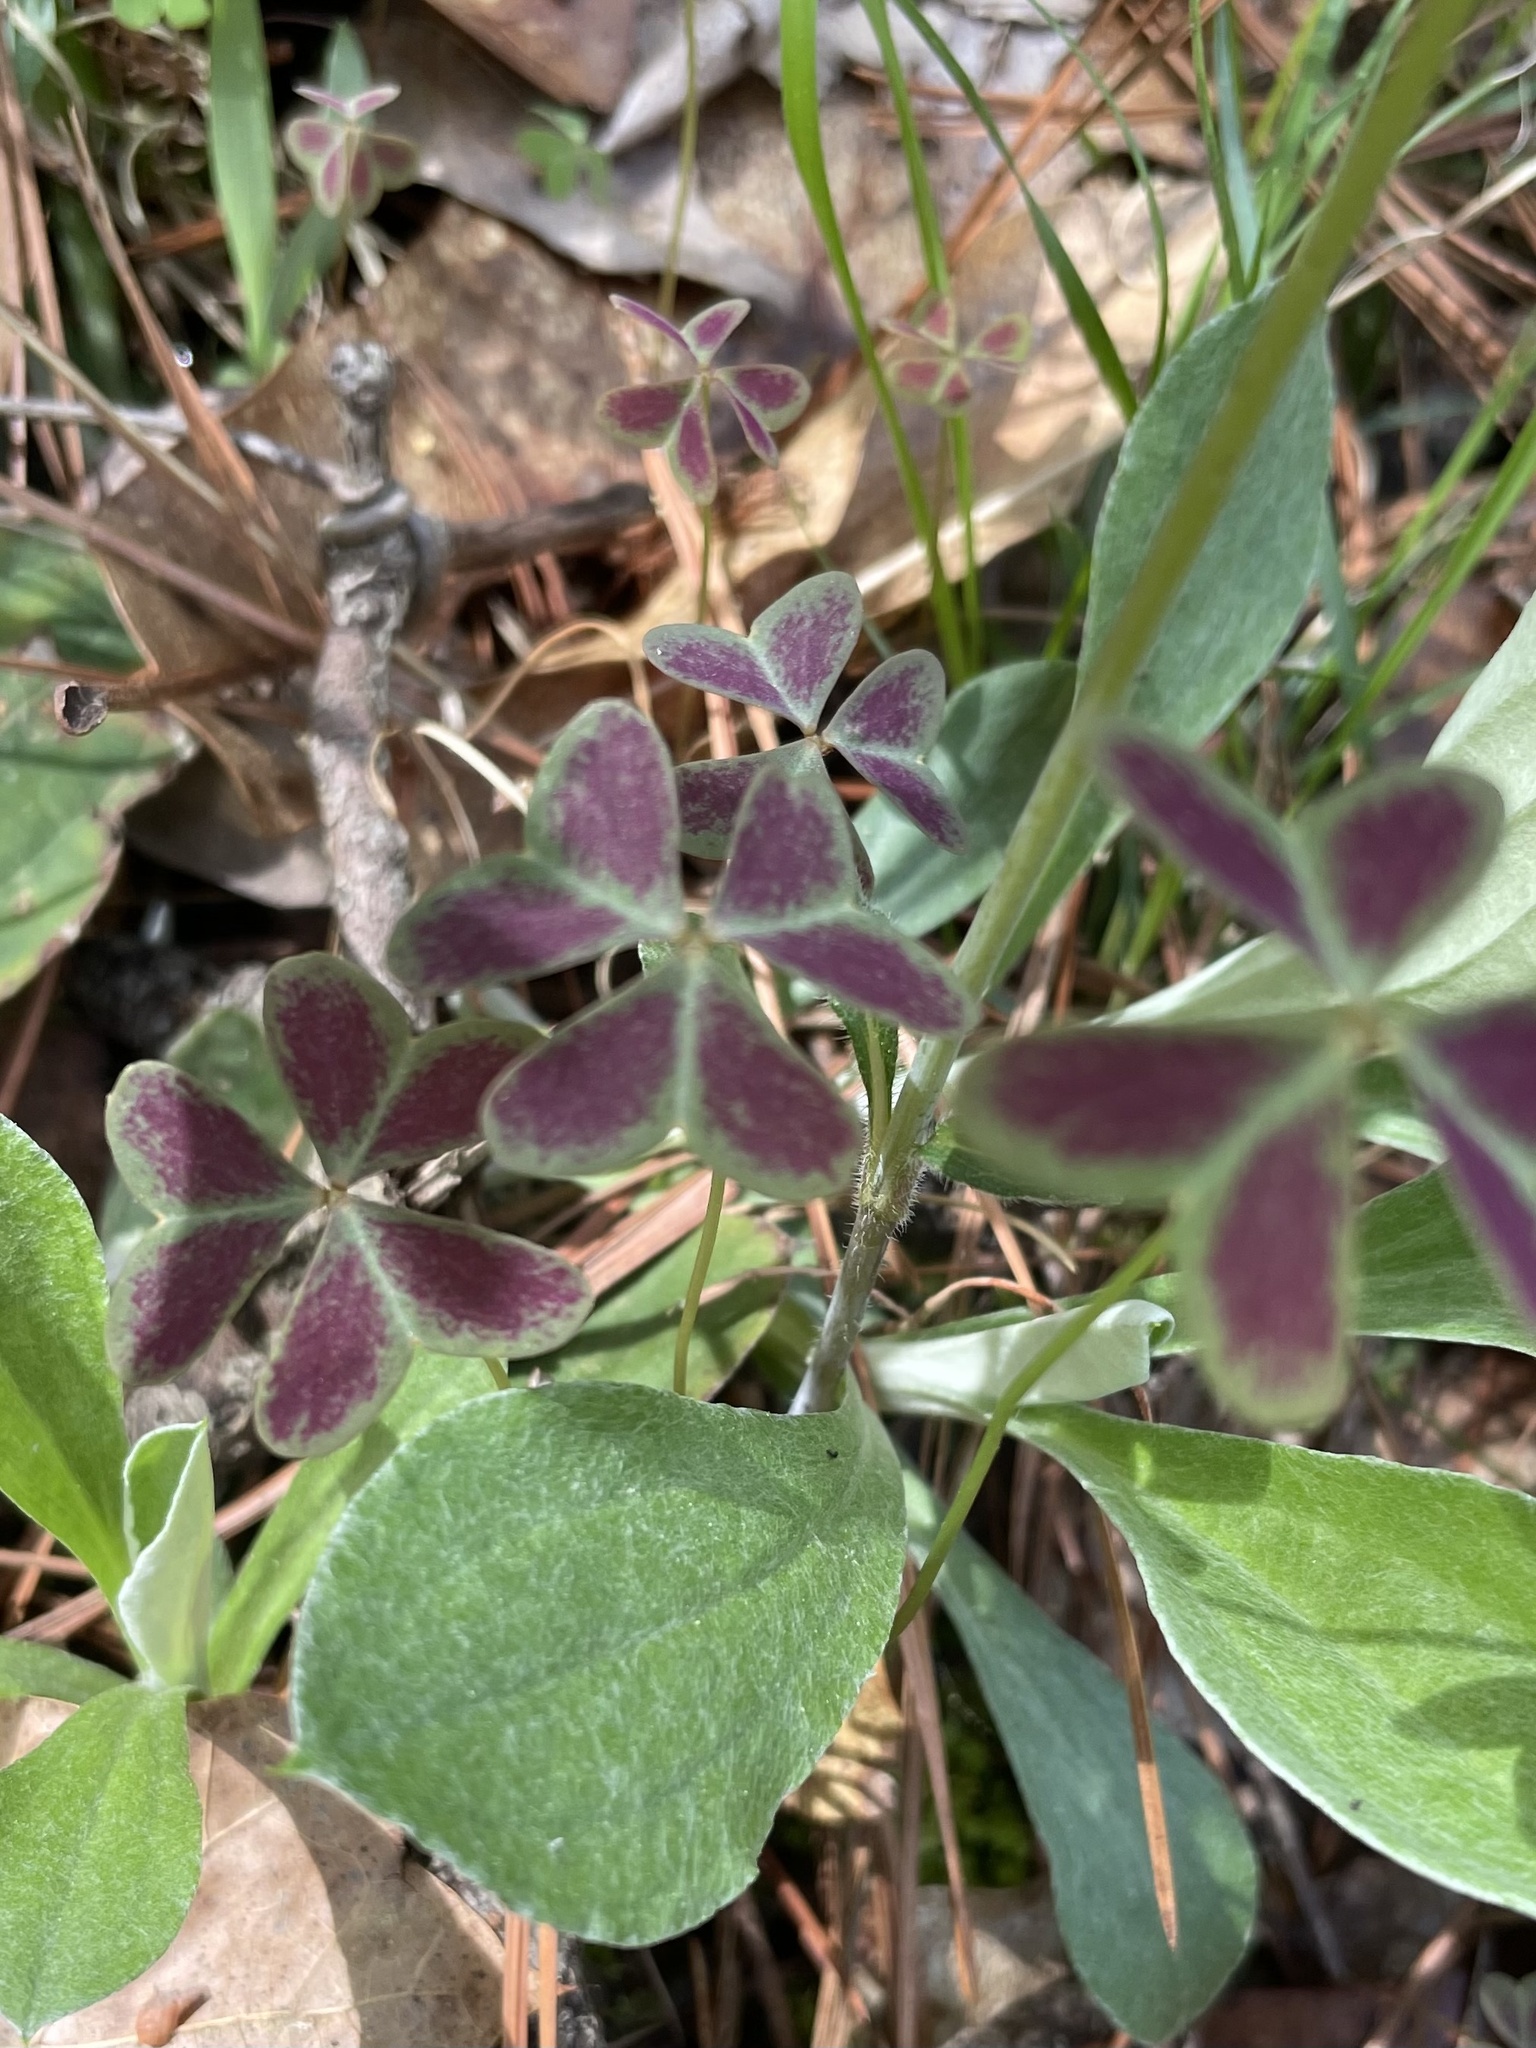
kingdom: Plantae
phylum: Tracheophyta
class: Magnoliopsida
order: Oxalidales
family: Oxalidaceae
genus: Oxalis
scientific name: Oxalis violacea
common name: Violet wood-sorrel
